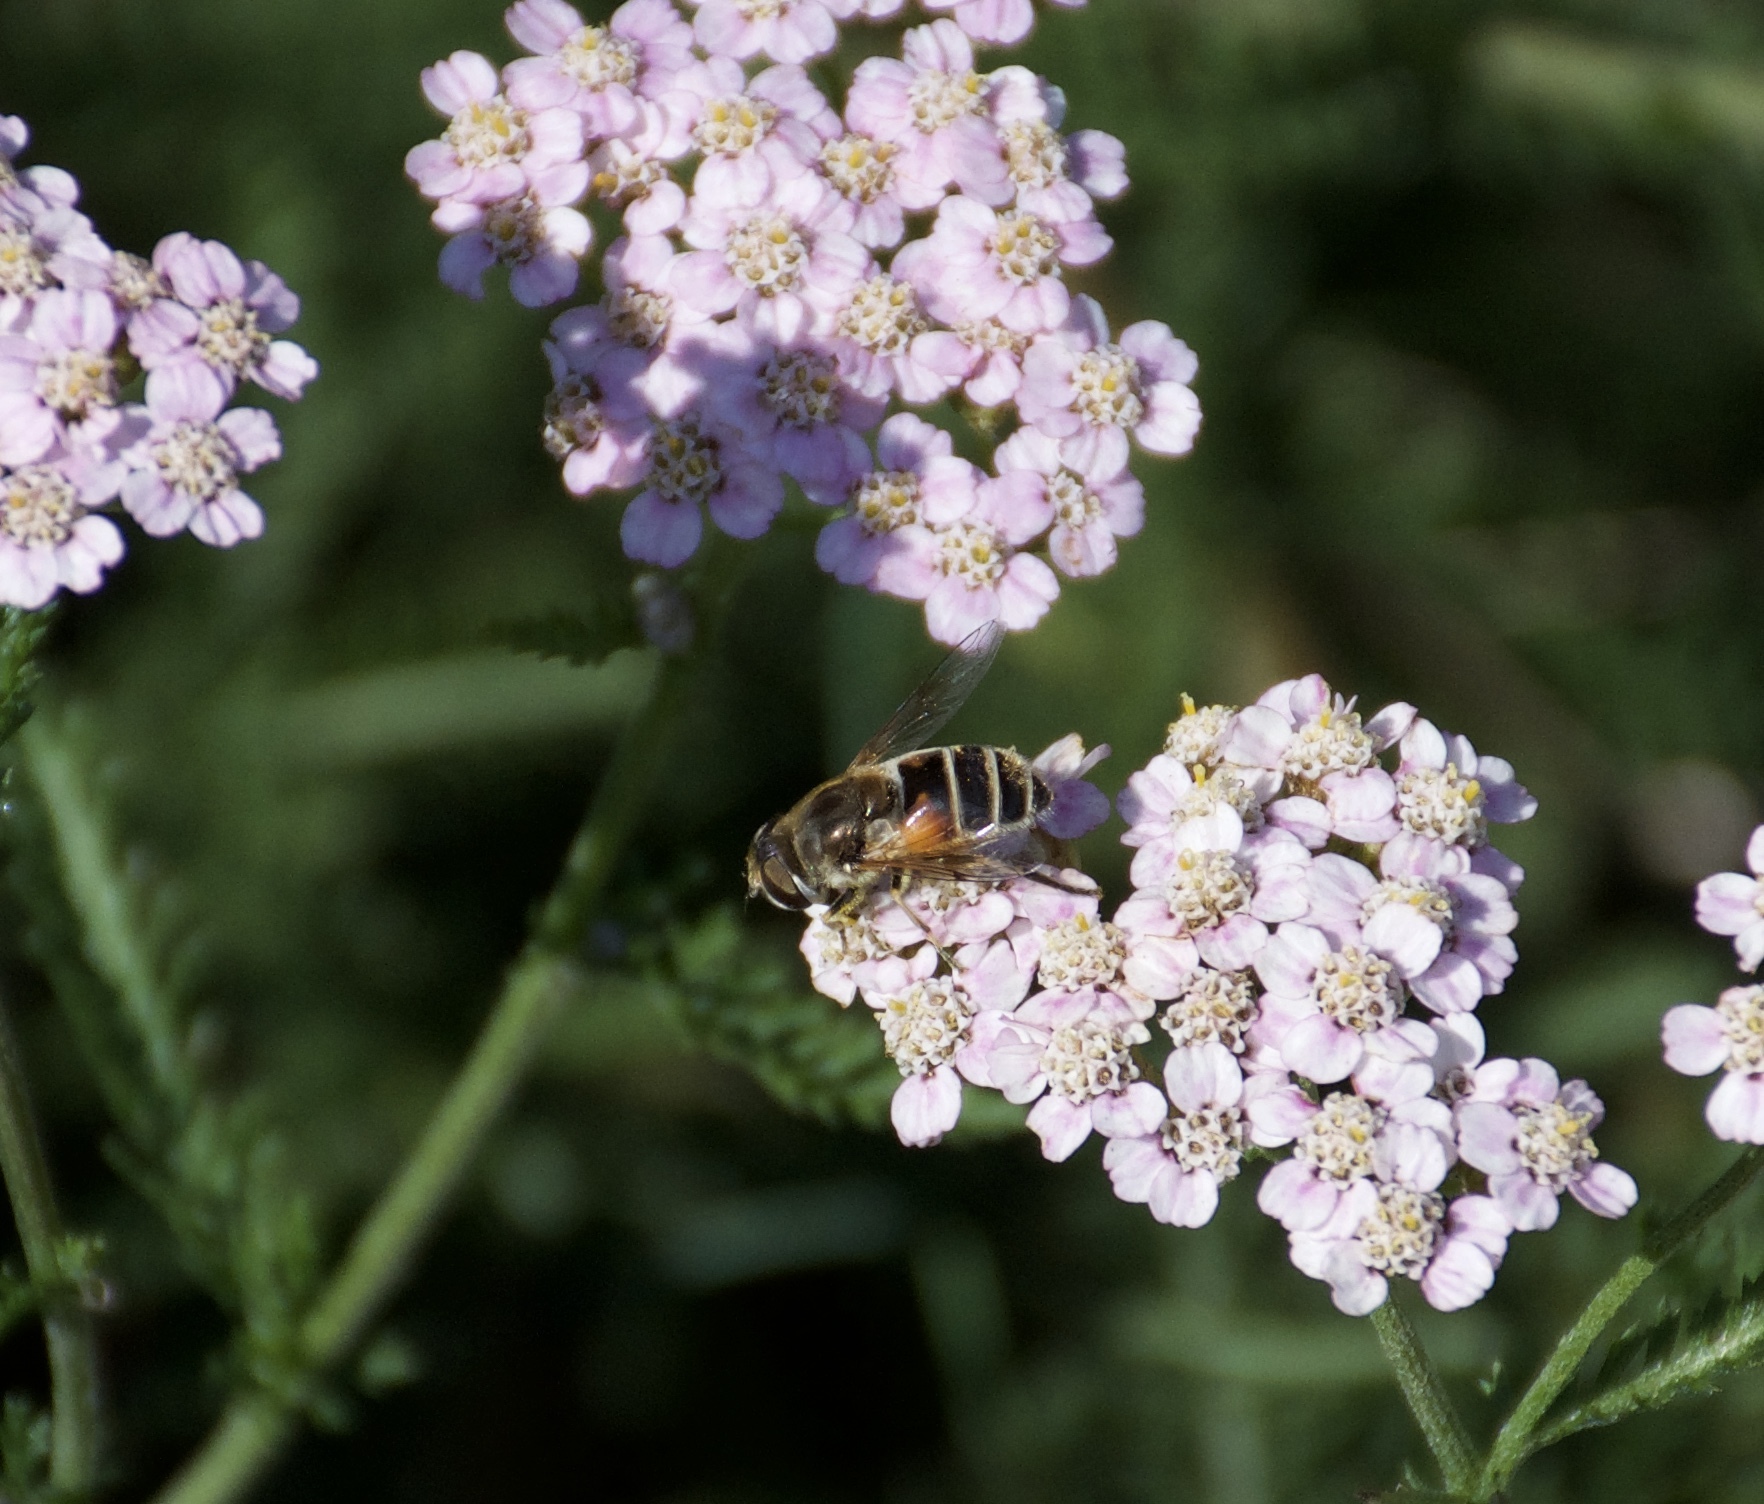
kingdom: Animalia
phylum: Arthropoda
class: Insecta
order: Diptera
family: Syrphidae
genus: Eristalis
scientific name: Eristalis arbustorum
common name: Hover fly
